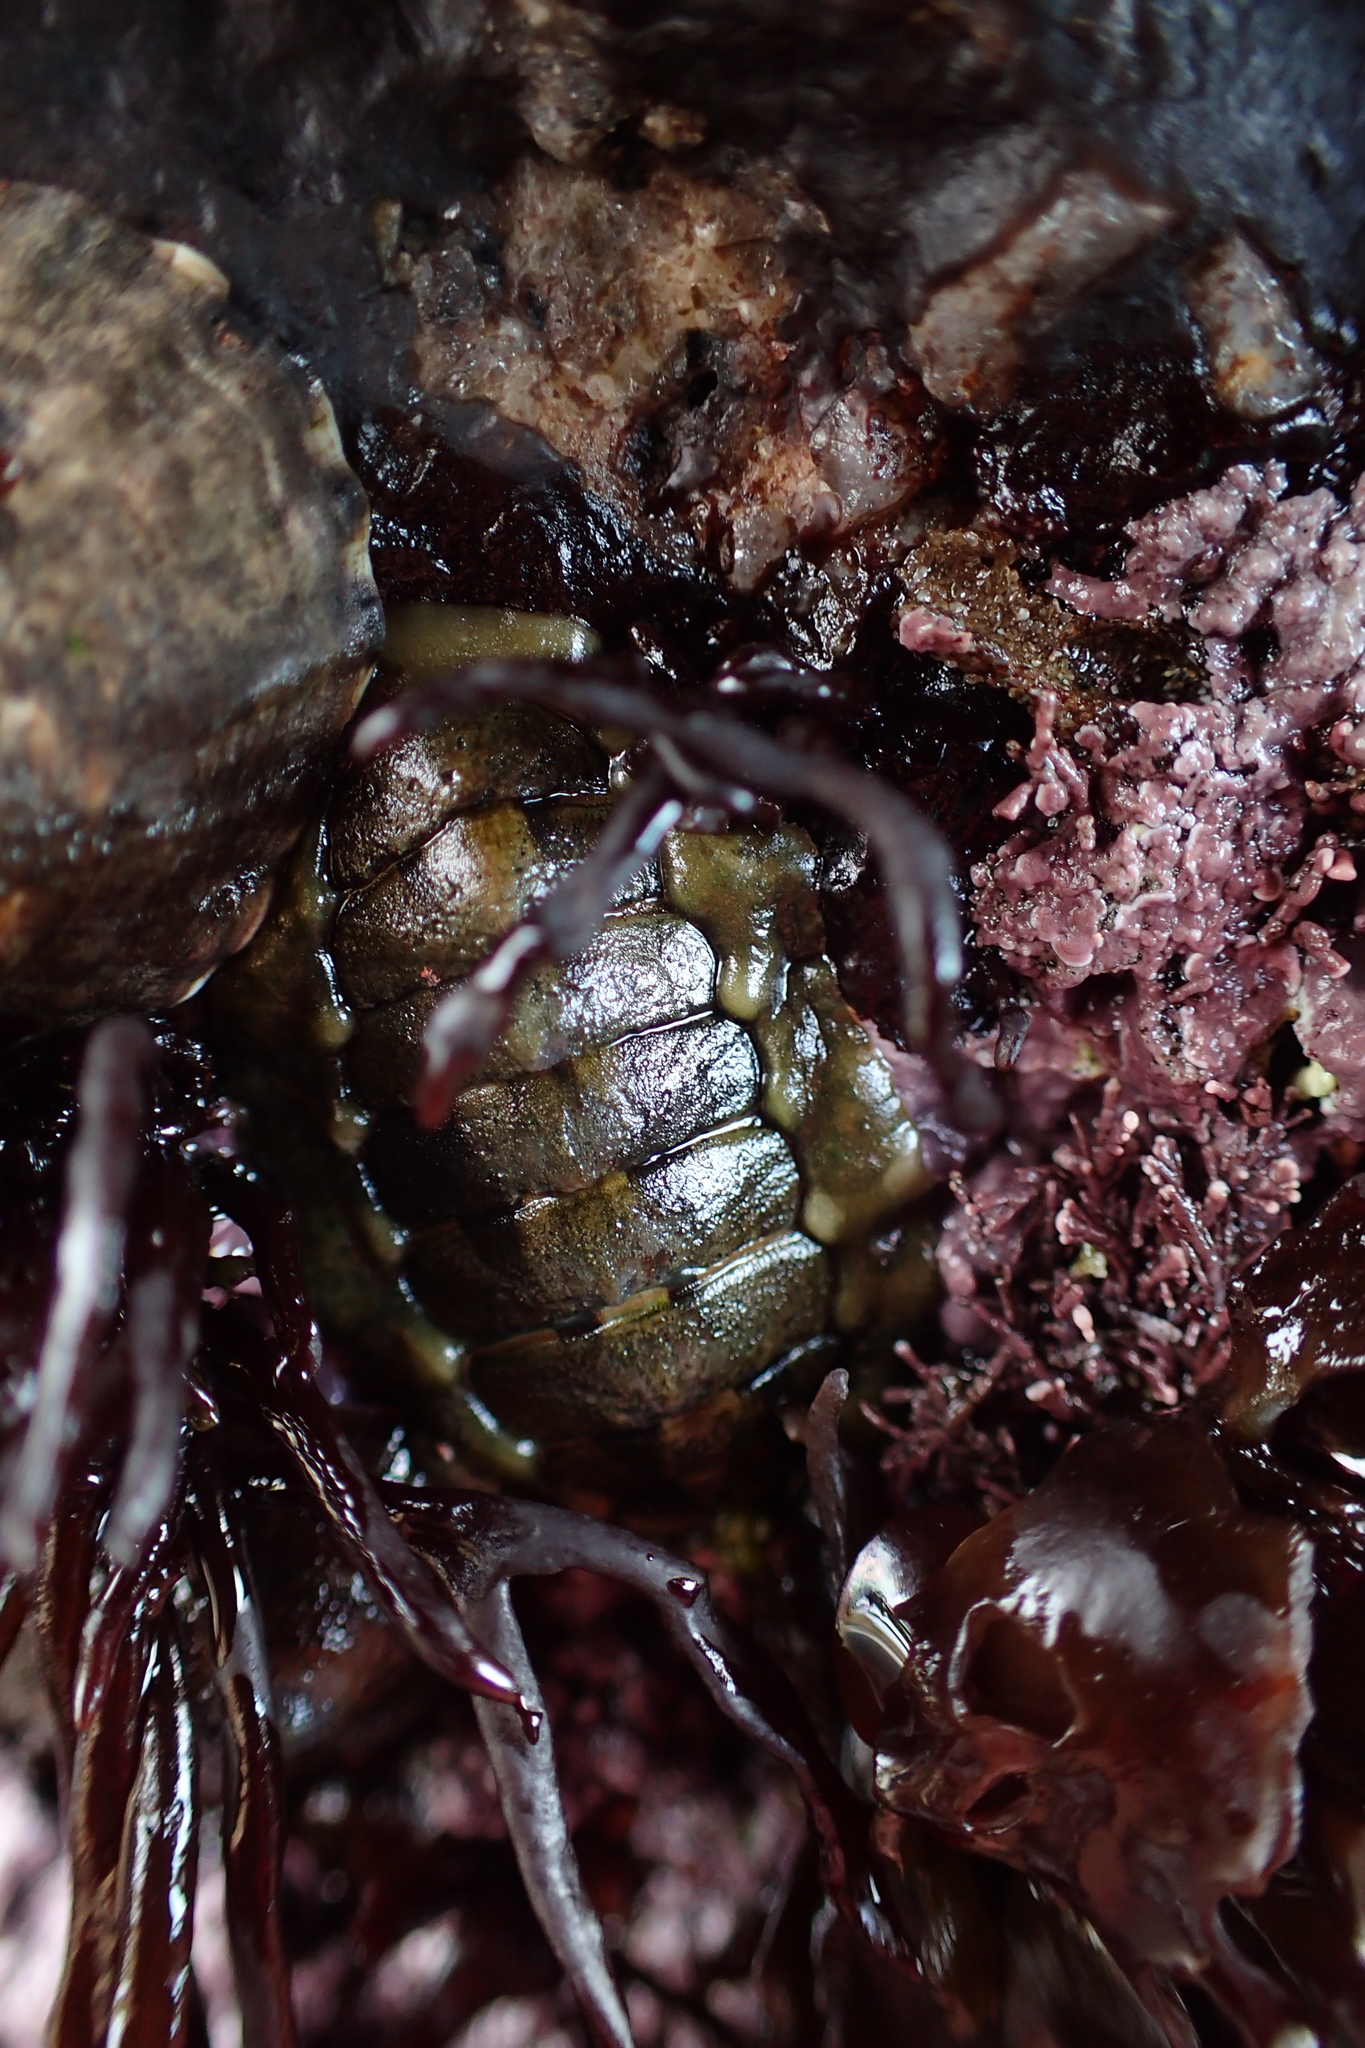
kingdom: Animalia
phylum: Mollusca
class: Polyplacophora
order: Chitonida
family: Tonicellidae
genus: Cyanoplax
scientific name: Cyanoplax hartwegii
